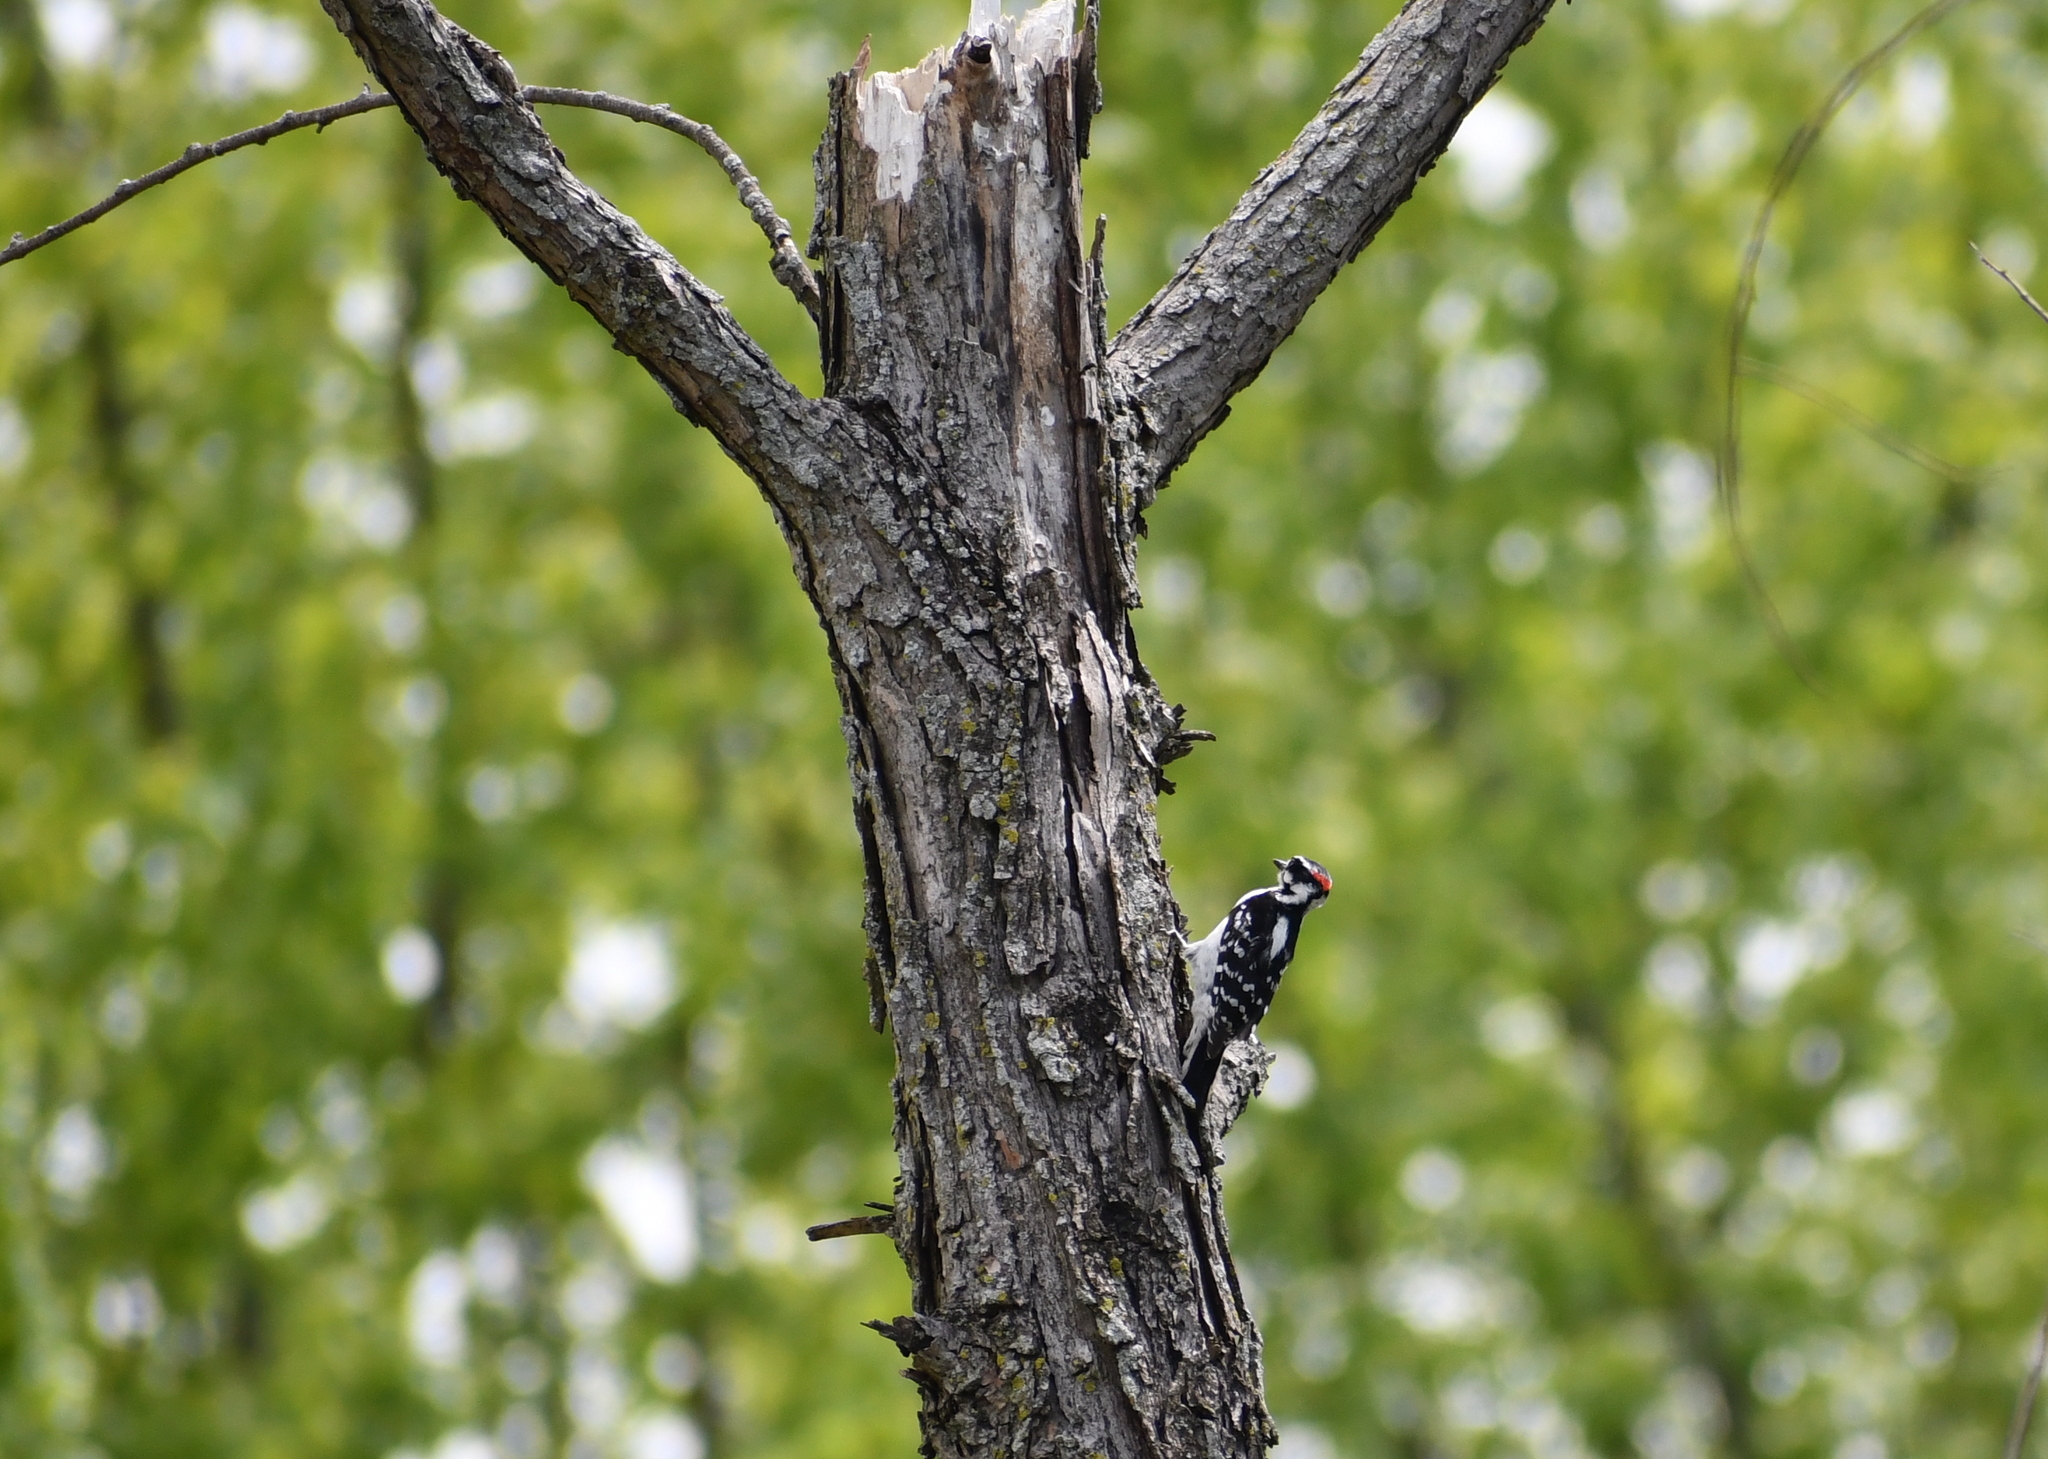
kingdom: Animalia
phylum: Chordata
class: Aves
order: Piciformes
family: Picidae
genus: Dryobates
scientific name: Dryobates pubescens
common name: Downy woodpecker
